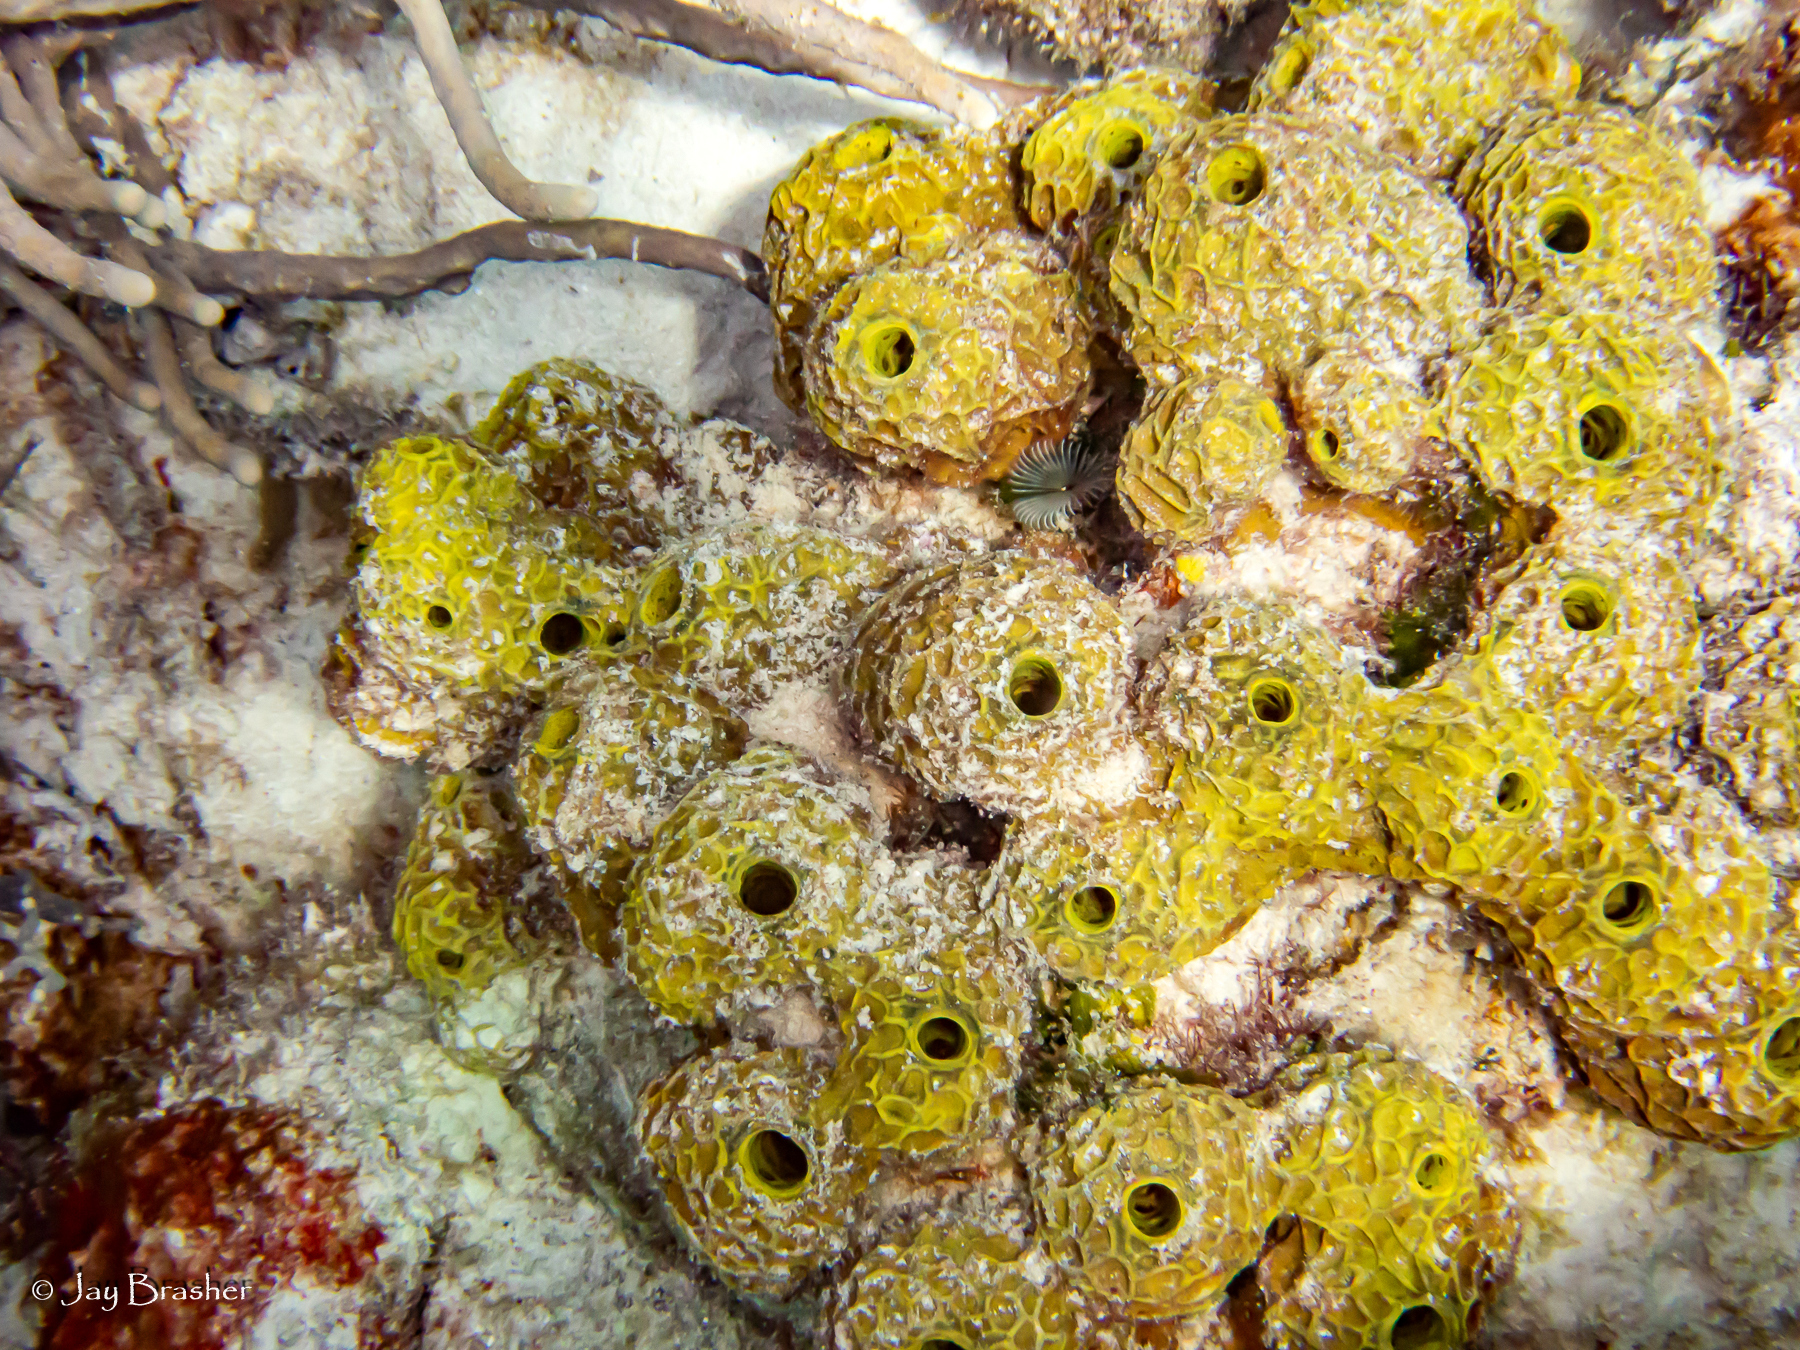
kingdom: Animalia
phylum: Porifera
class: Demospongiae
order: Verongiida
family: Aplysinidae
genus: Verongula
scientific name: Verongula rigida
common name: Pitted sponge
